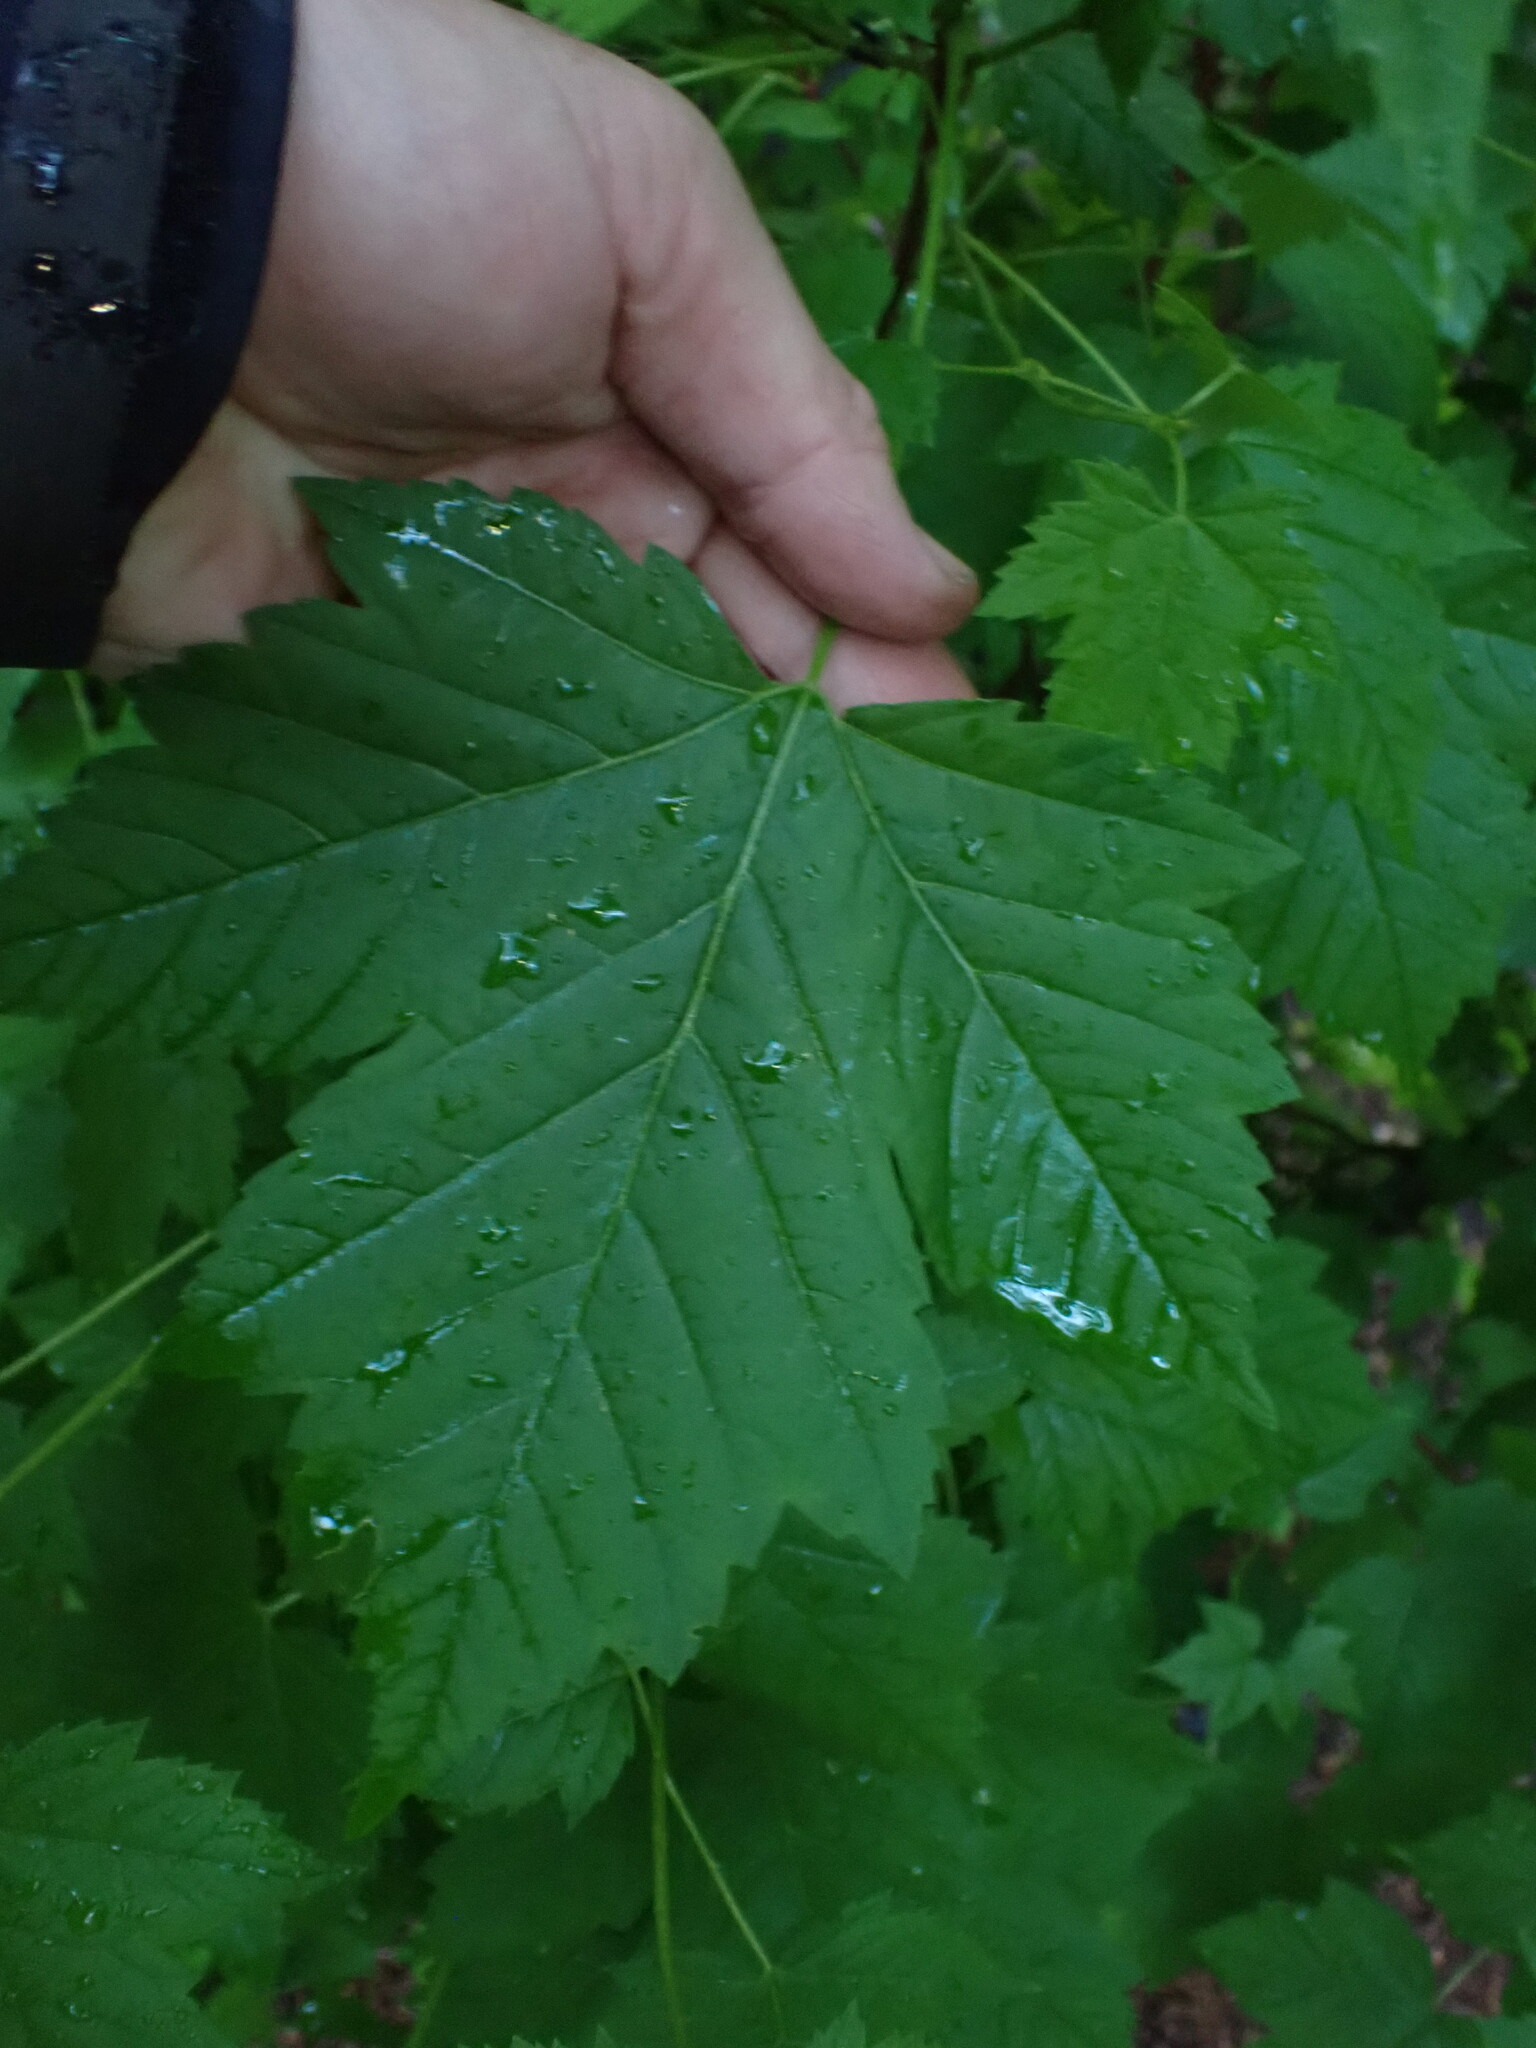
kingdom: Plantae
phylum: Tracheophyta
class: Magnoliopsida
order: Sapindales
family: Sapindaceae
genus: Acer
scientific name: Acer glabrum
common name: Rocky mountain maple
